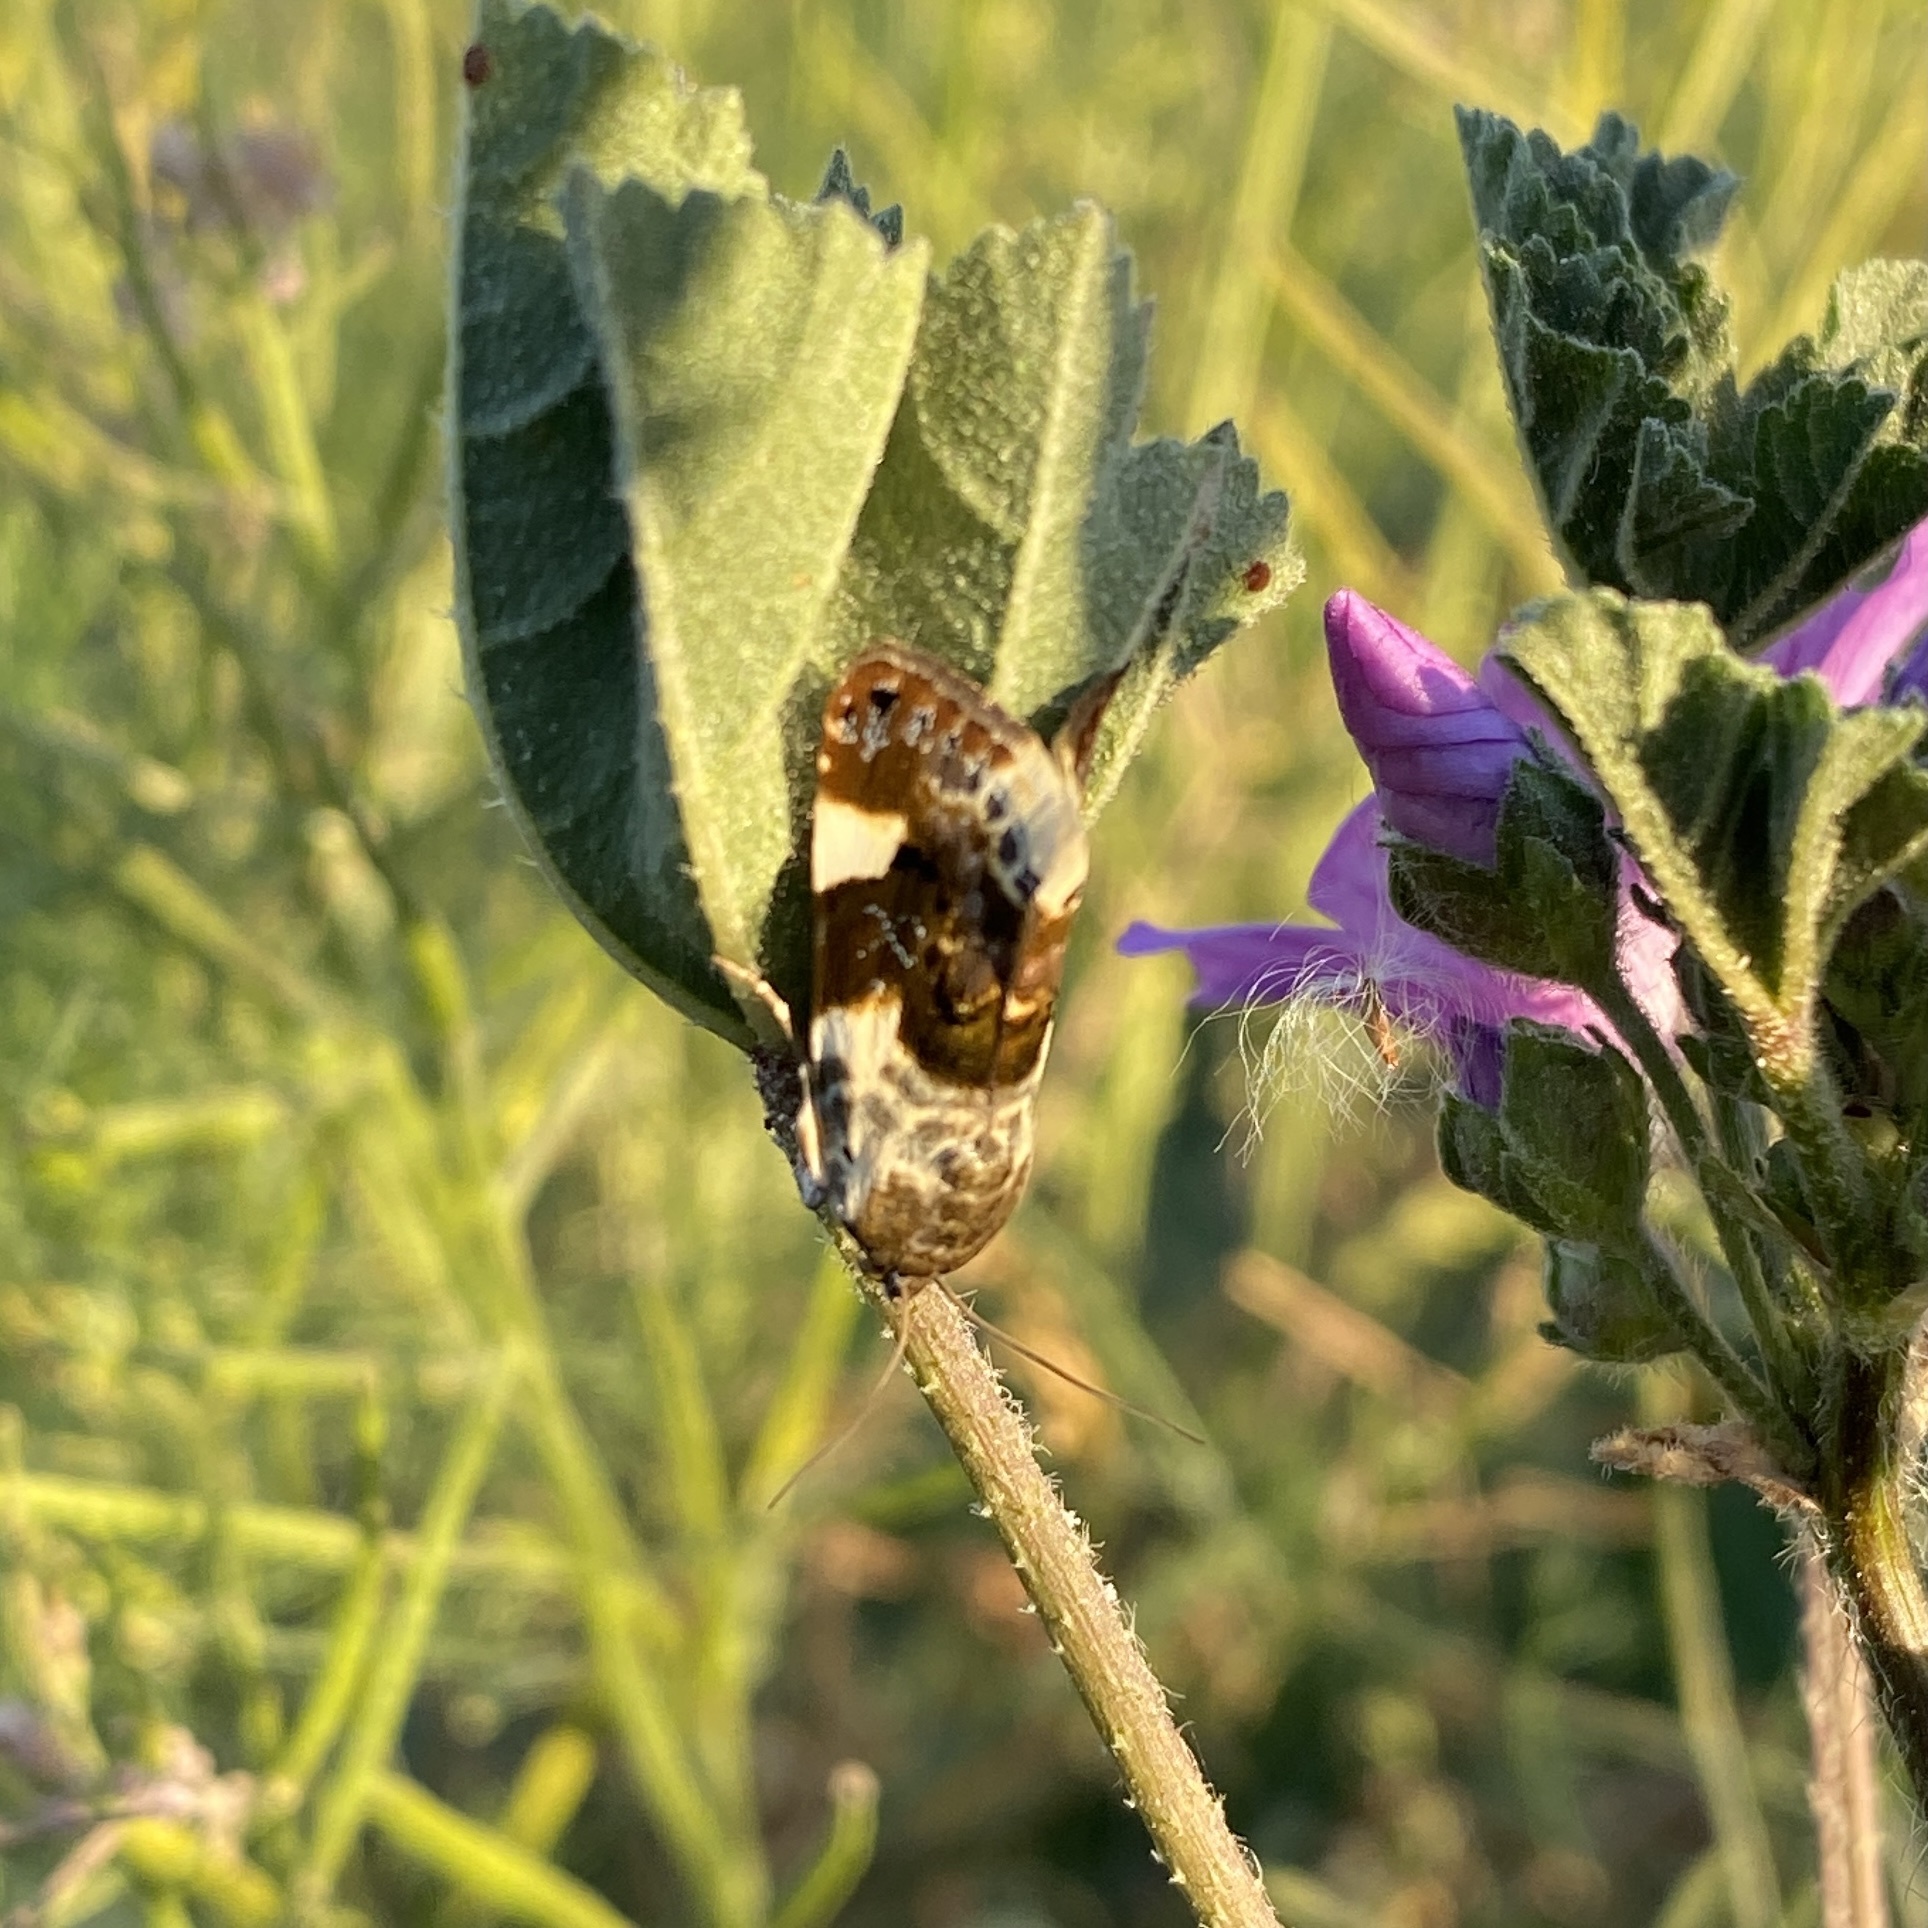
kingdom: Animalia
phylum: Arthropoda
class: Insecta
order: Lepidoptera
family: Noctuidae
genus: Acontia
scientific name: Acontia lucida
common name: Pale shoulder
